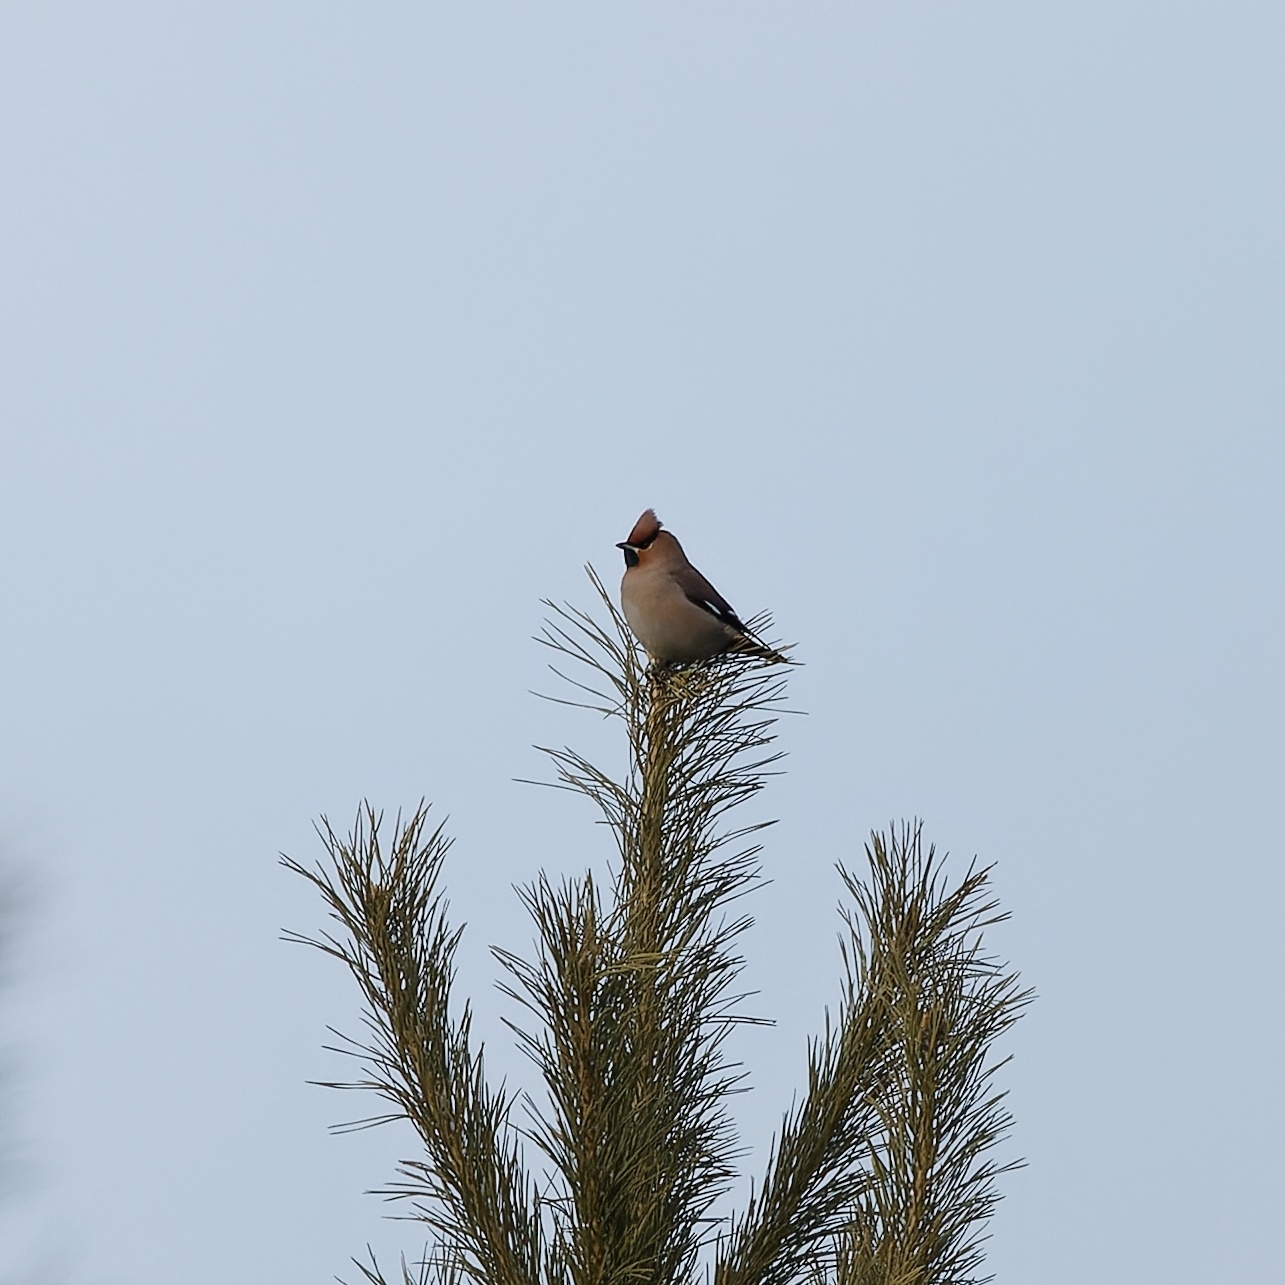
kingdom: Animalia
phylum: Chordata
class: Aves
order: Passeriformes
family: Bombycillidae
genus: Bombycilla
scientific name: Bombycilla garrulus
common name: Bohemian waxwing
